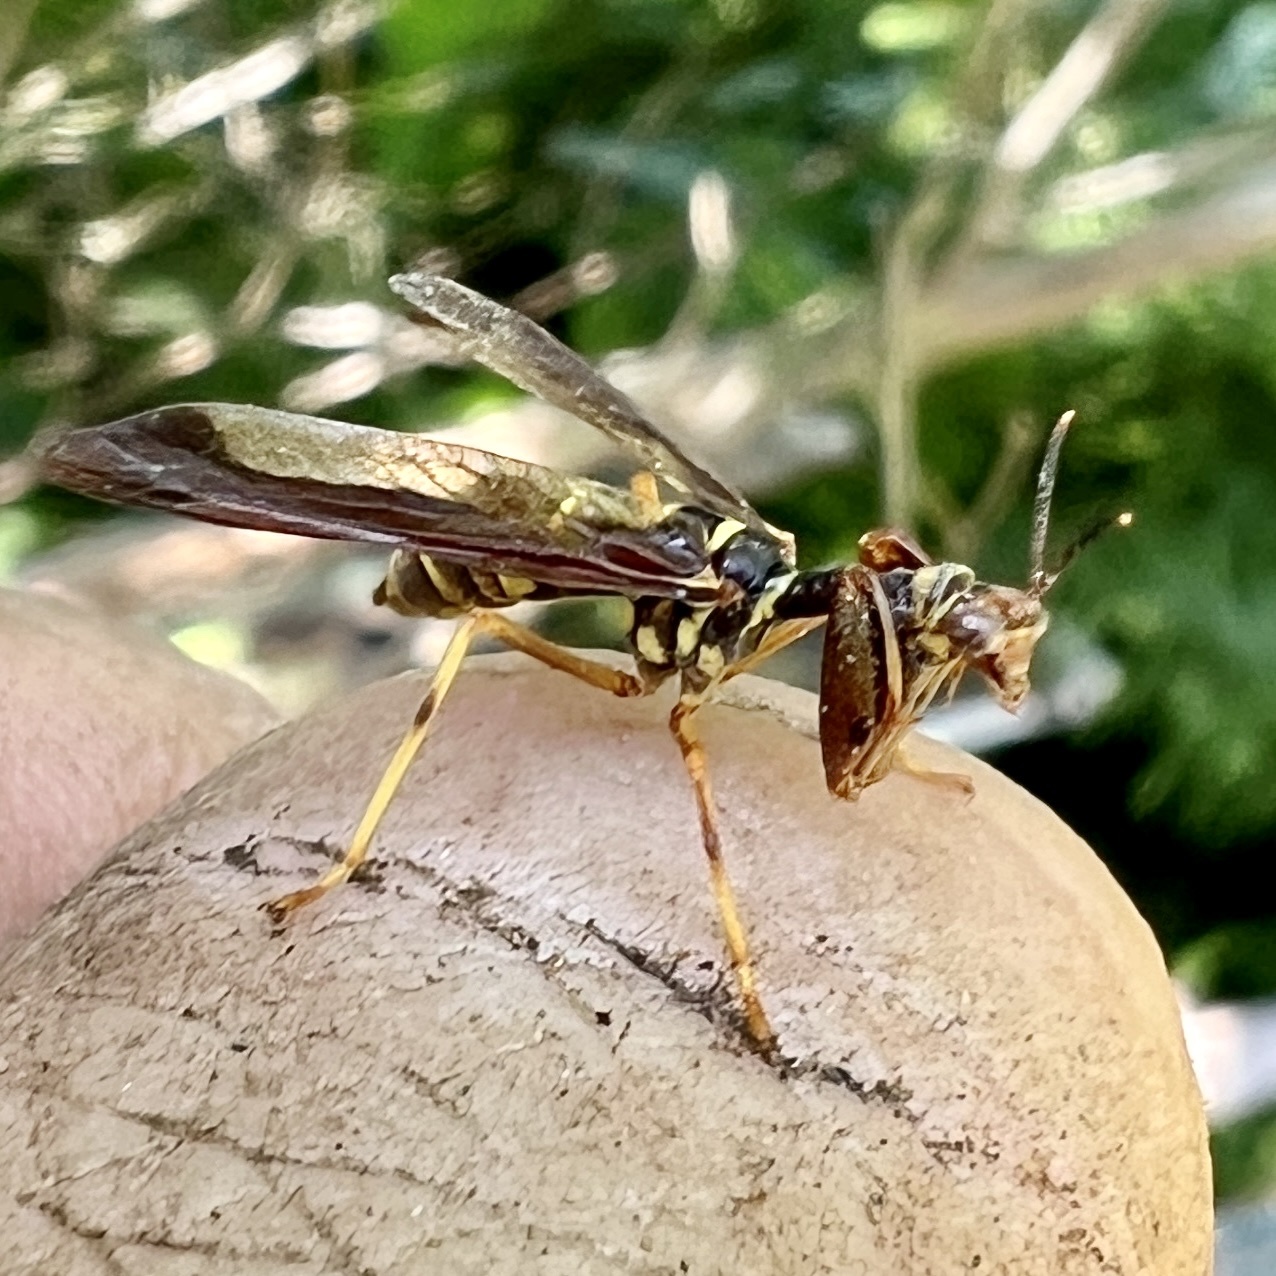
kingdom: Animalia
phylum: Arthropoda
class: Insecta
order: Neuroptera
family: Mantispidae
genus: Climaciella
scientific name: Climaciella brunnea
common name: Brown wasp mantidfly
